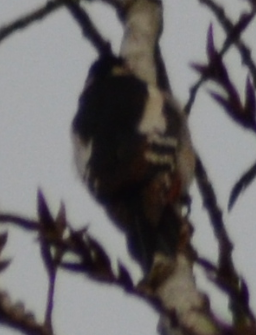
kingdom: Animalia
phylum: Chordata
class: Aves
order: Piciformes
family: Picidae
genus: Dendrocopos
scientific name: Dendrocopos major
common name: Great spotted woodpecker
